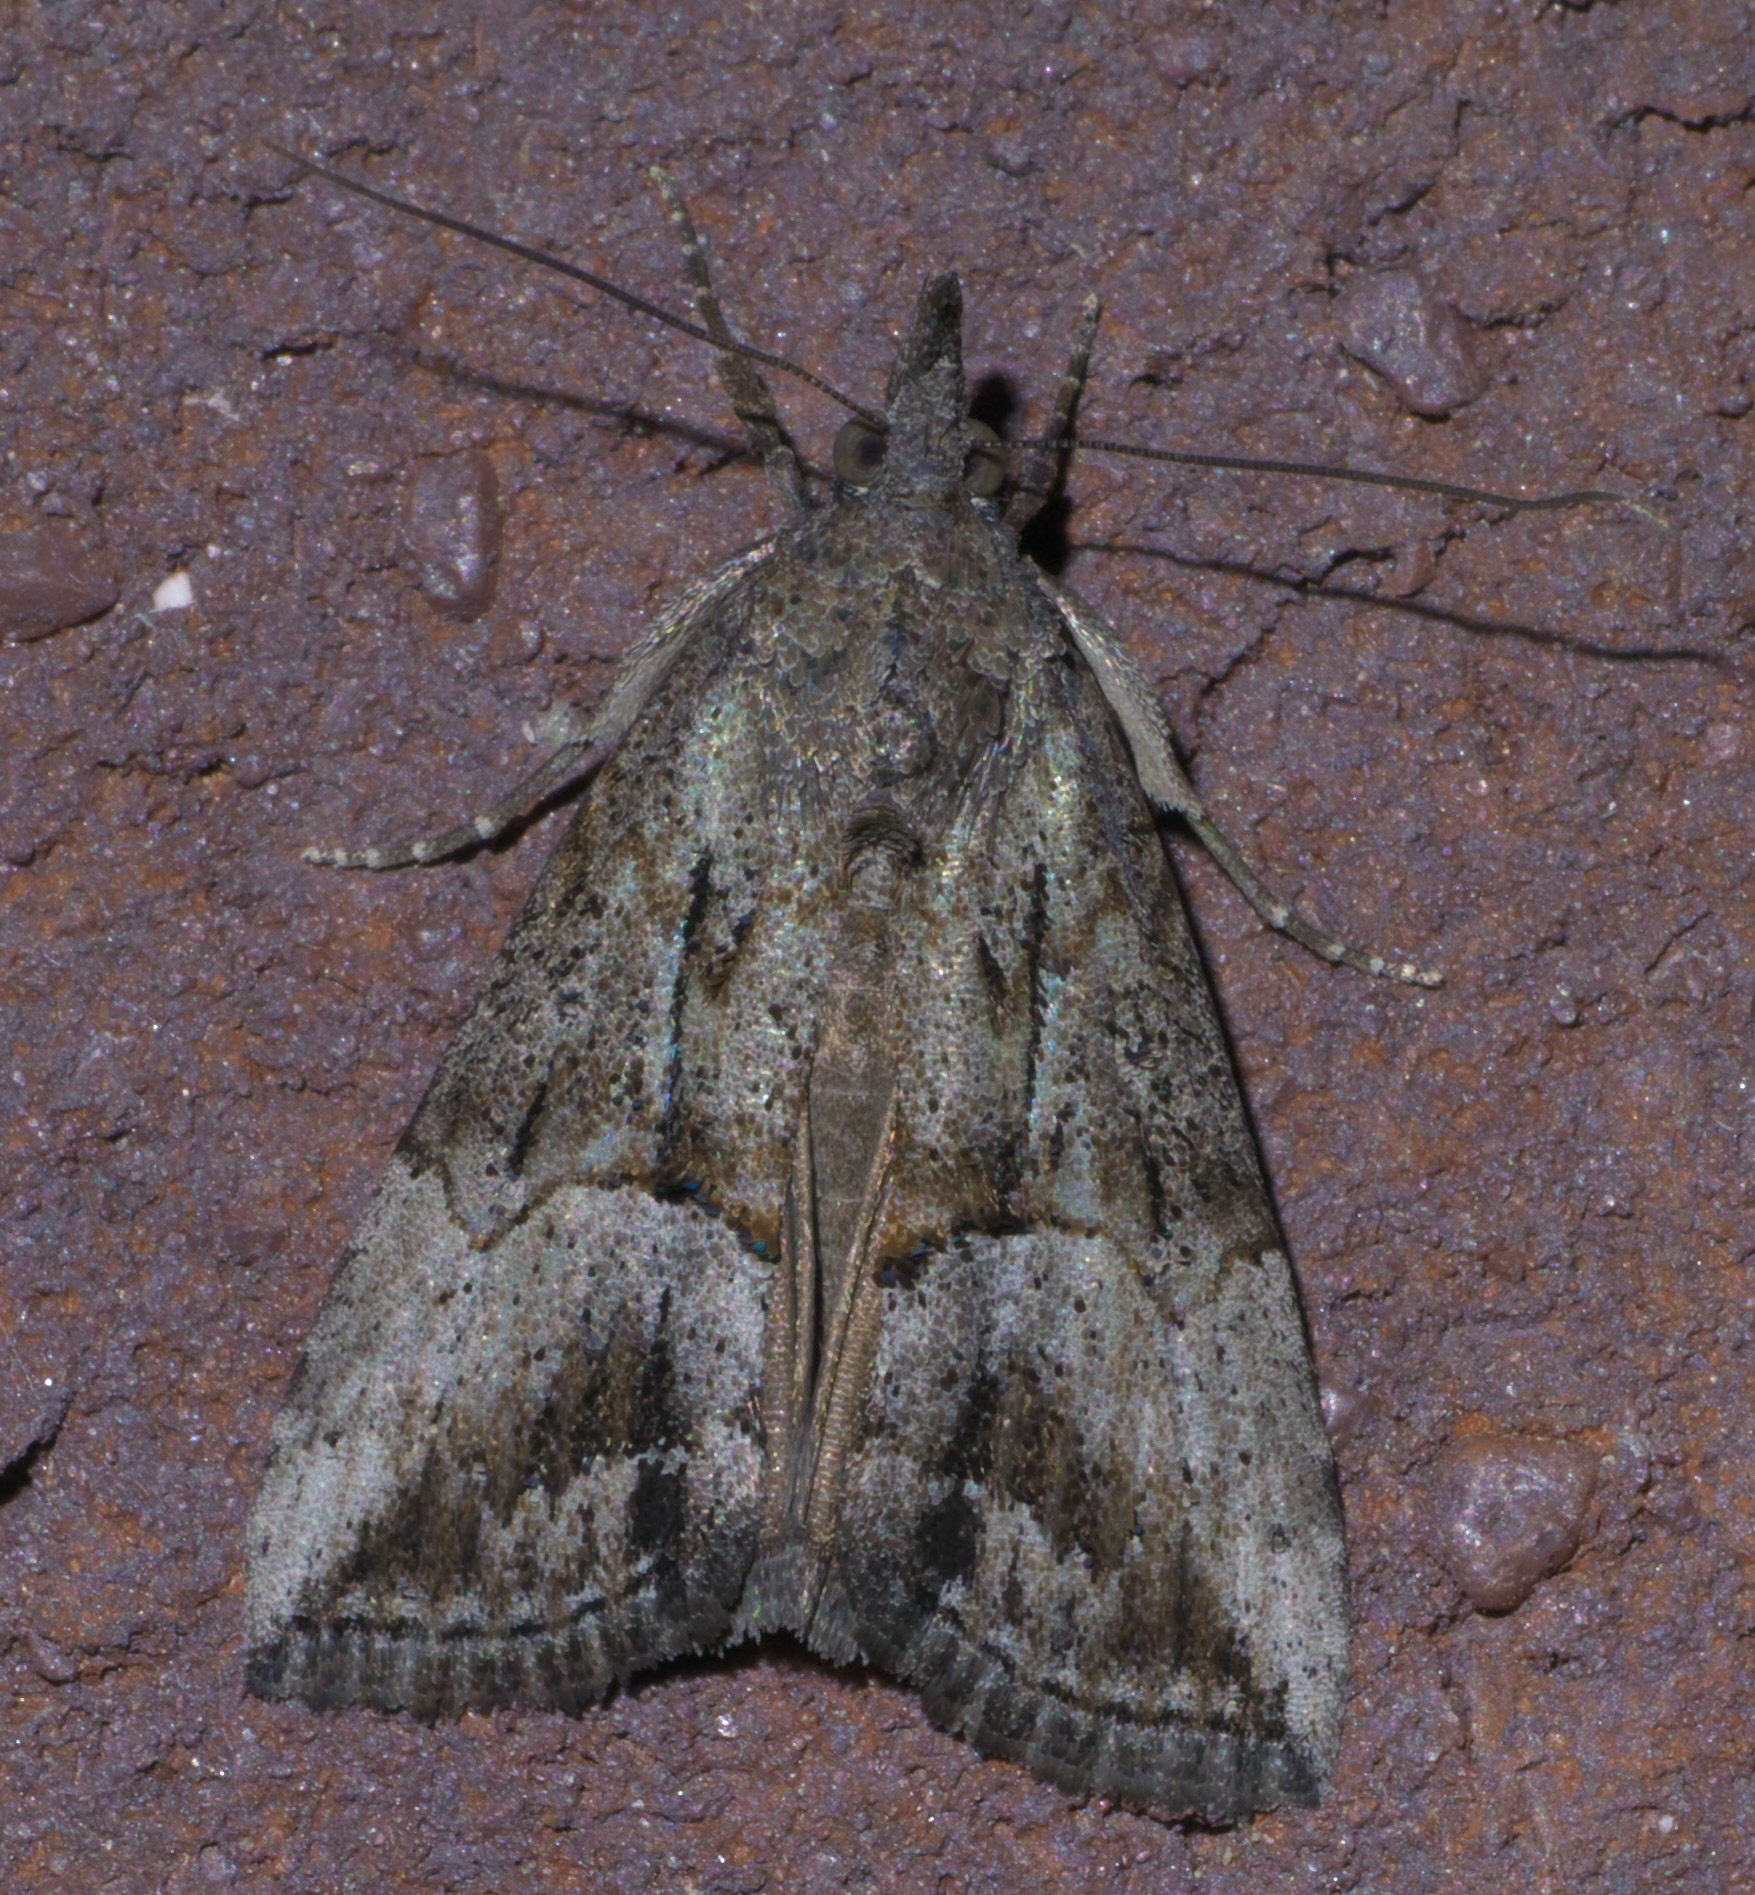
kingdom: Animalia
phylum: Arthropoda
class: Insecta
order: Lepidoptera
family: Erebidae
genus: Hypena
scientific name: Hypena scabra
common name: Green cloverworm
